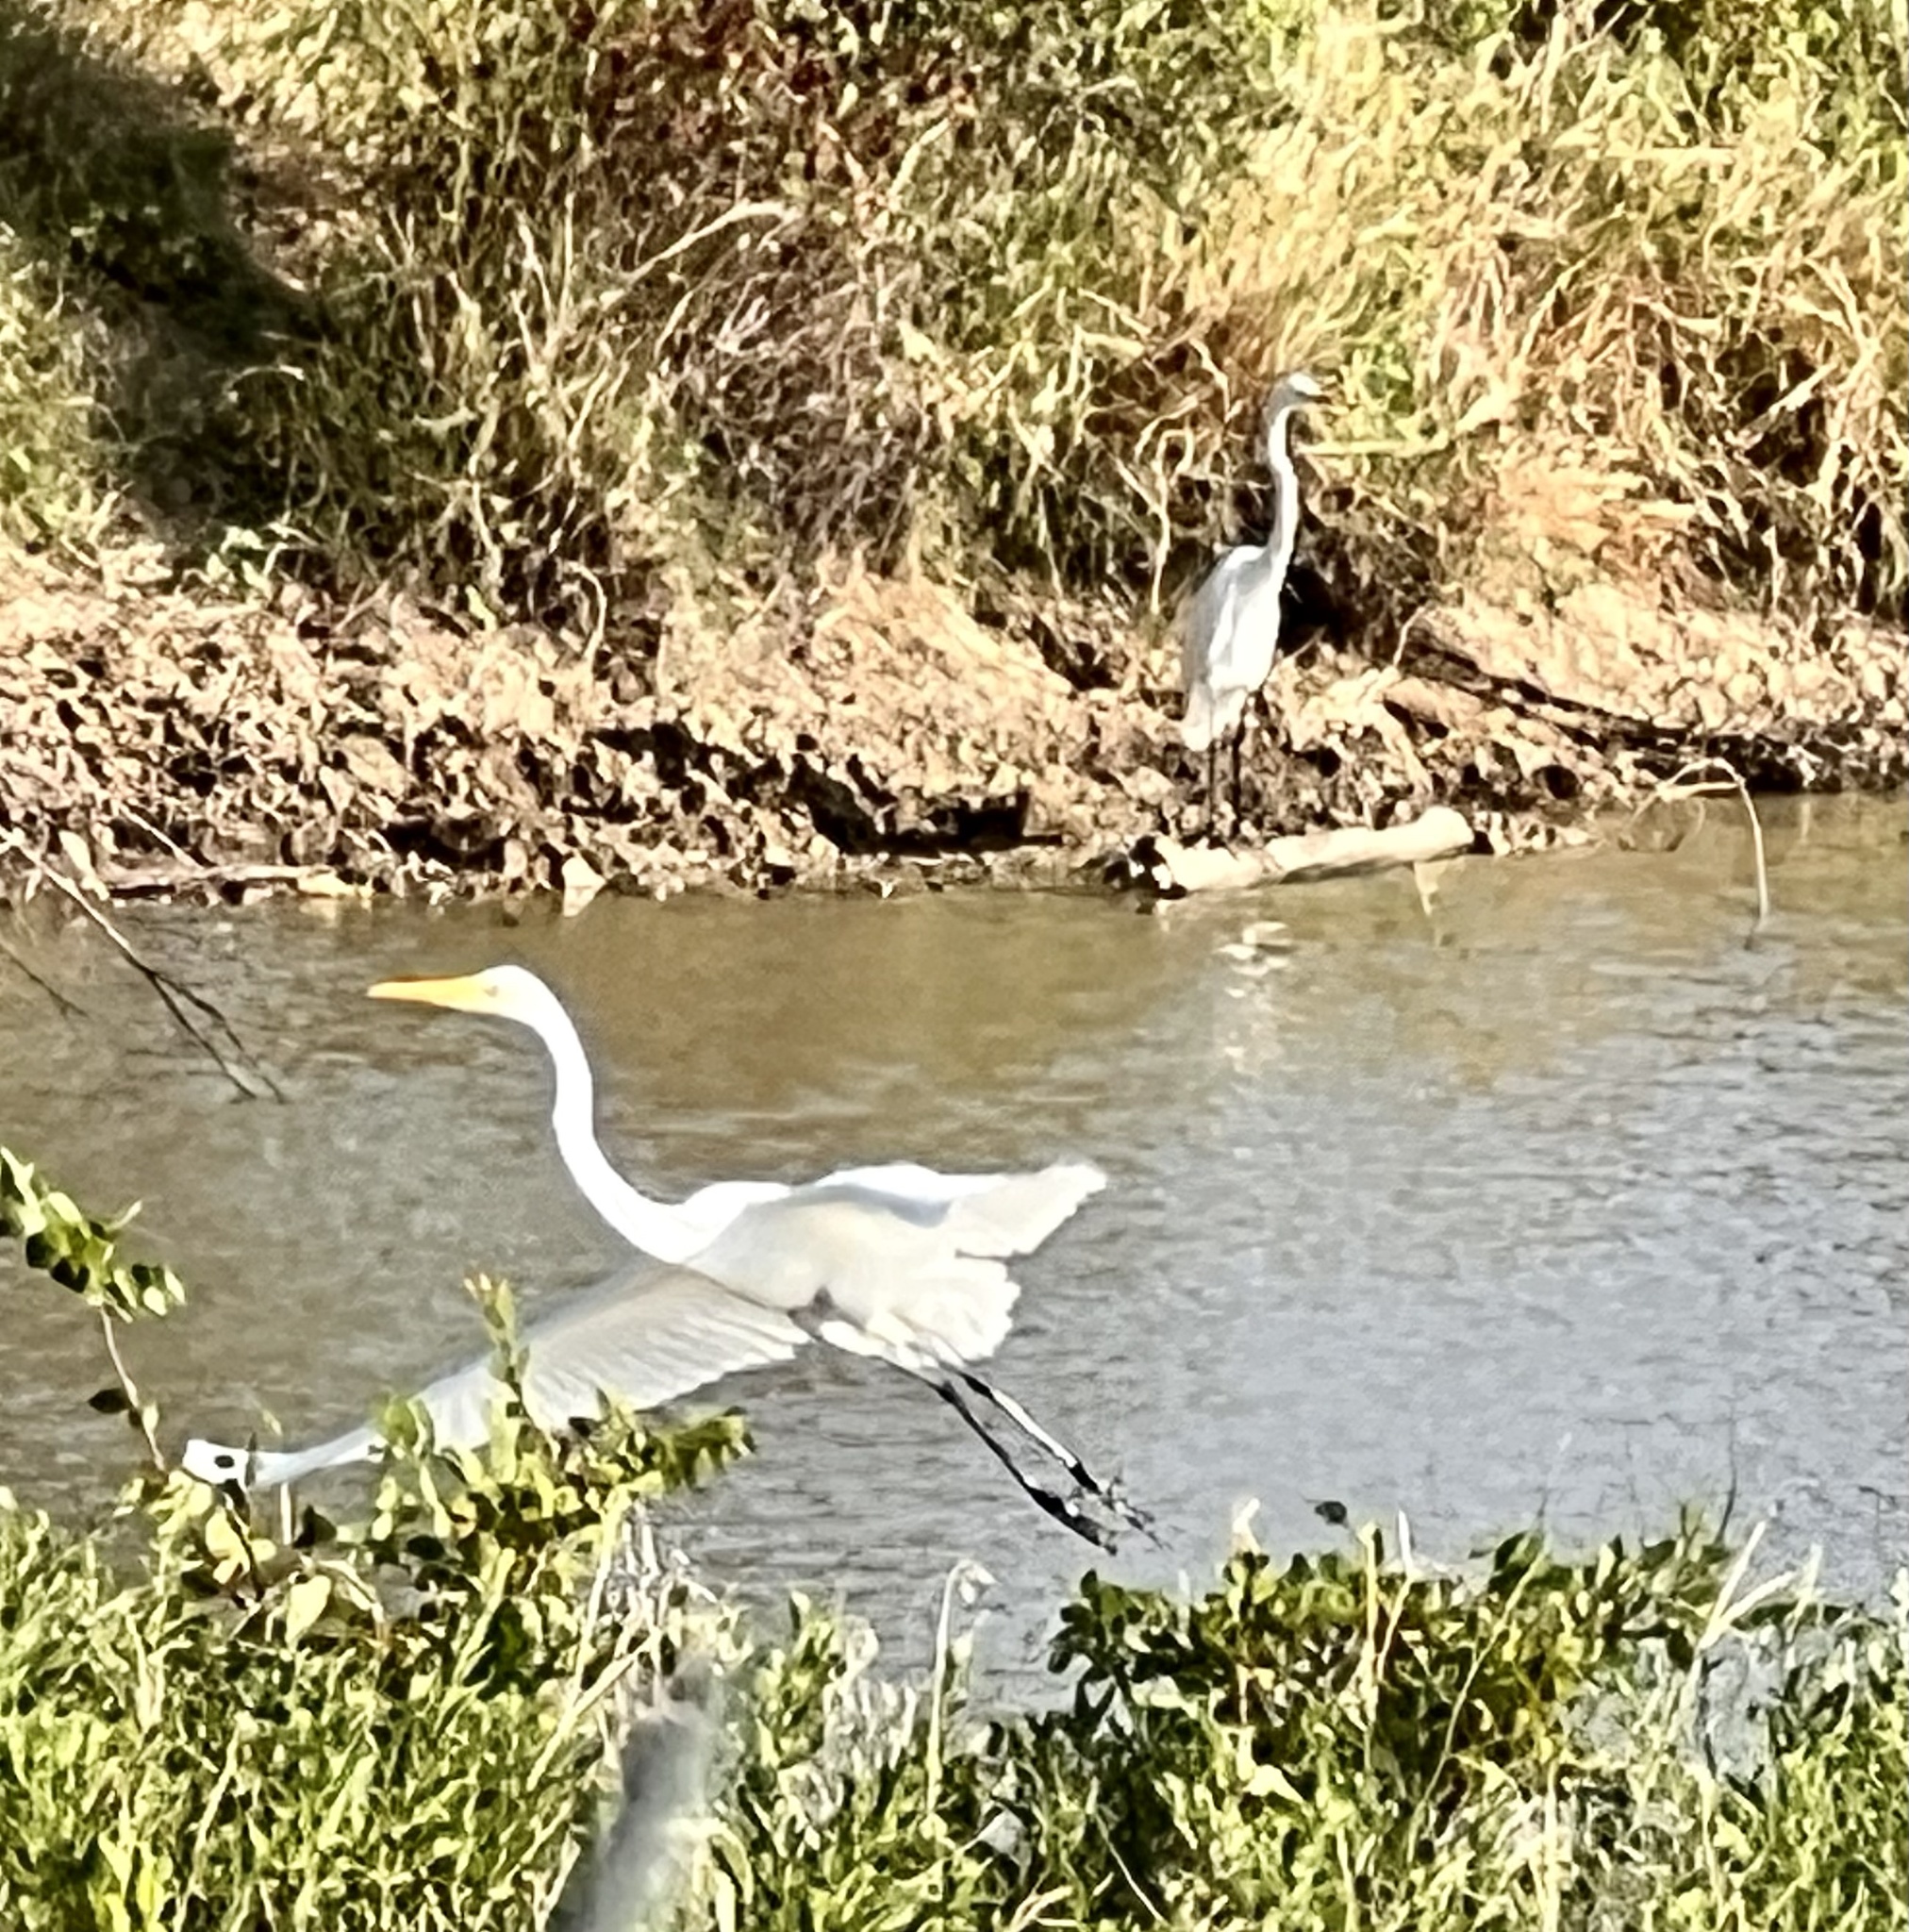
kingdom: Animalia
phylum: Chordata
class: Aves
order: Pelecaniformes
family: Ardeidae
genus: Ardea
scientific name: Ardea alba
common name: Great egret
